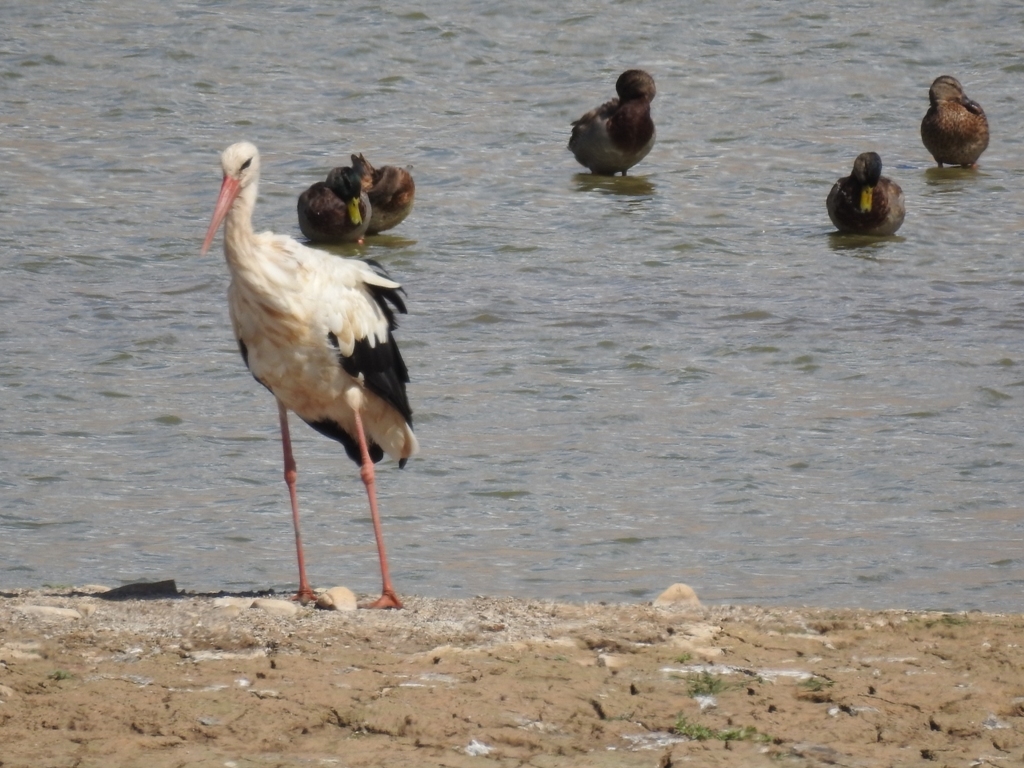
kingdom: Animalia
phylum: Chordata
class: Aves
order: Ciconiiformes
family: Ciconiidae
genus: Ciconia
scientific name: Ciconia ciconia
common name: White stork
